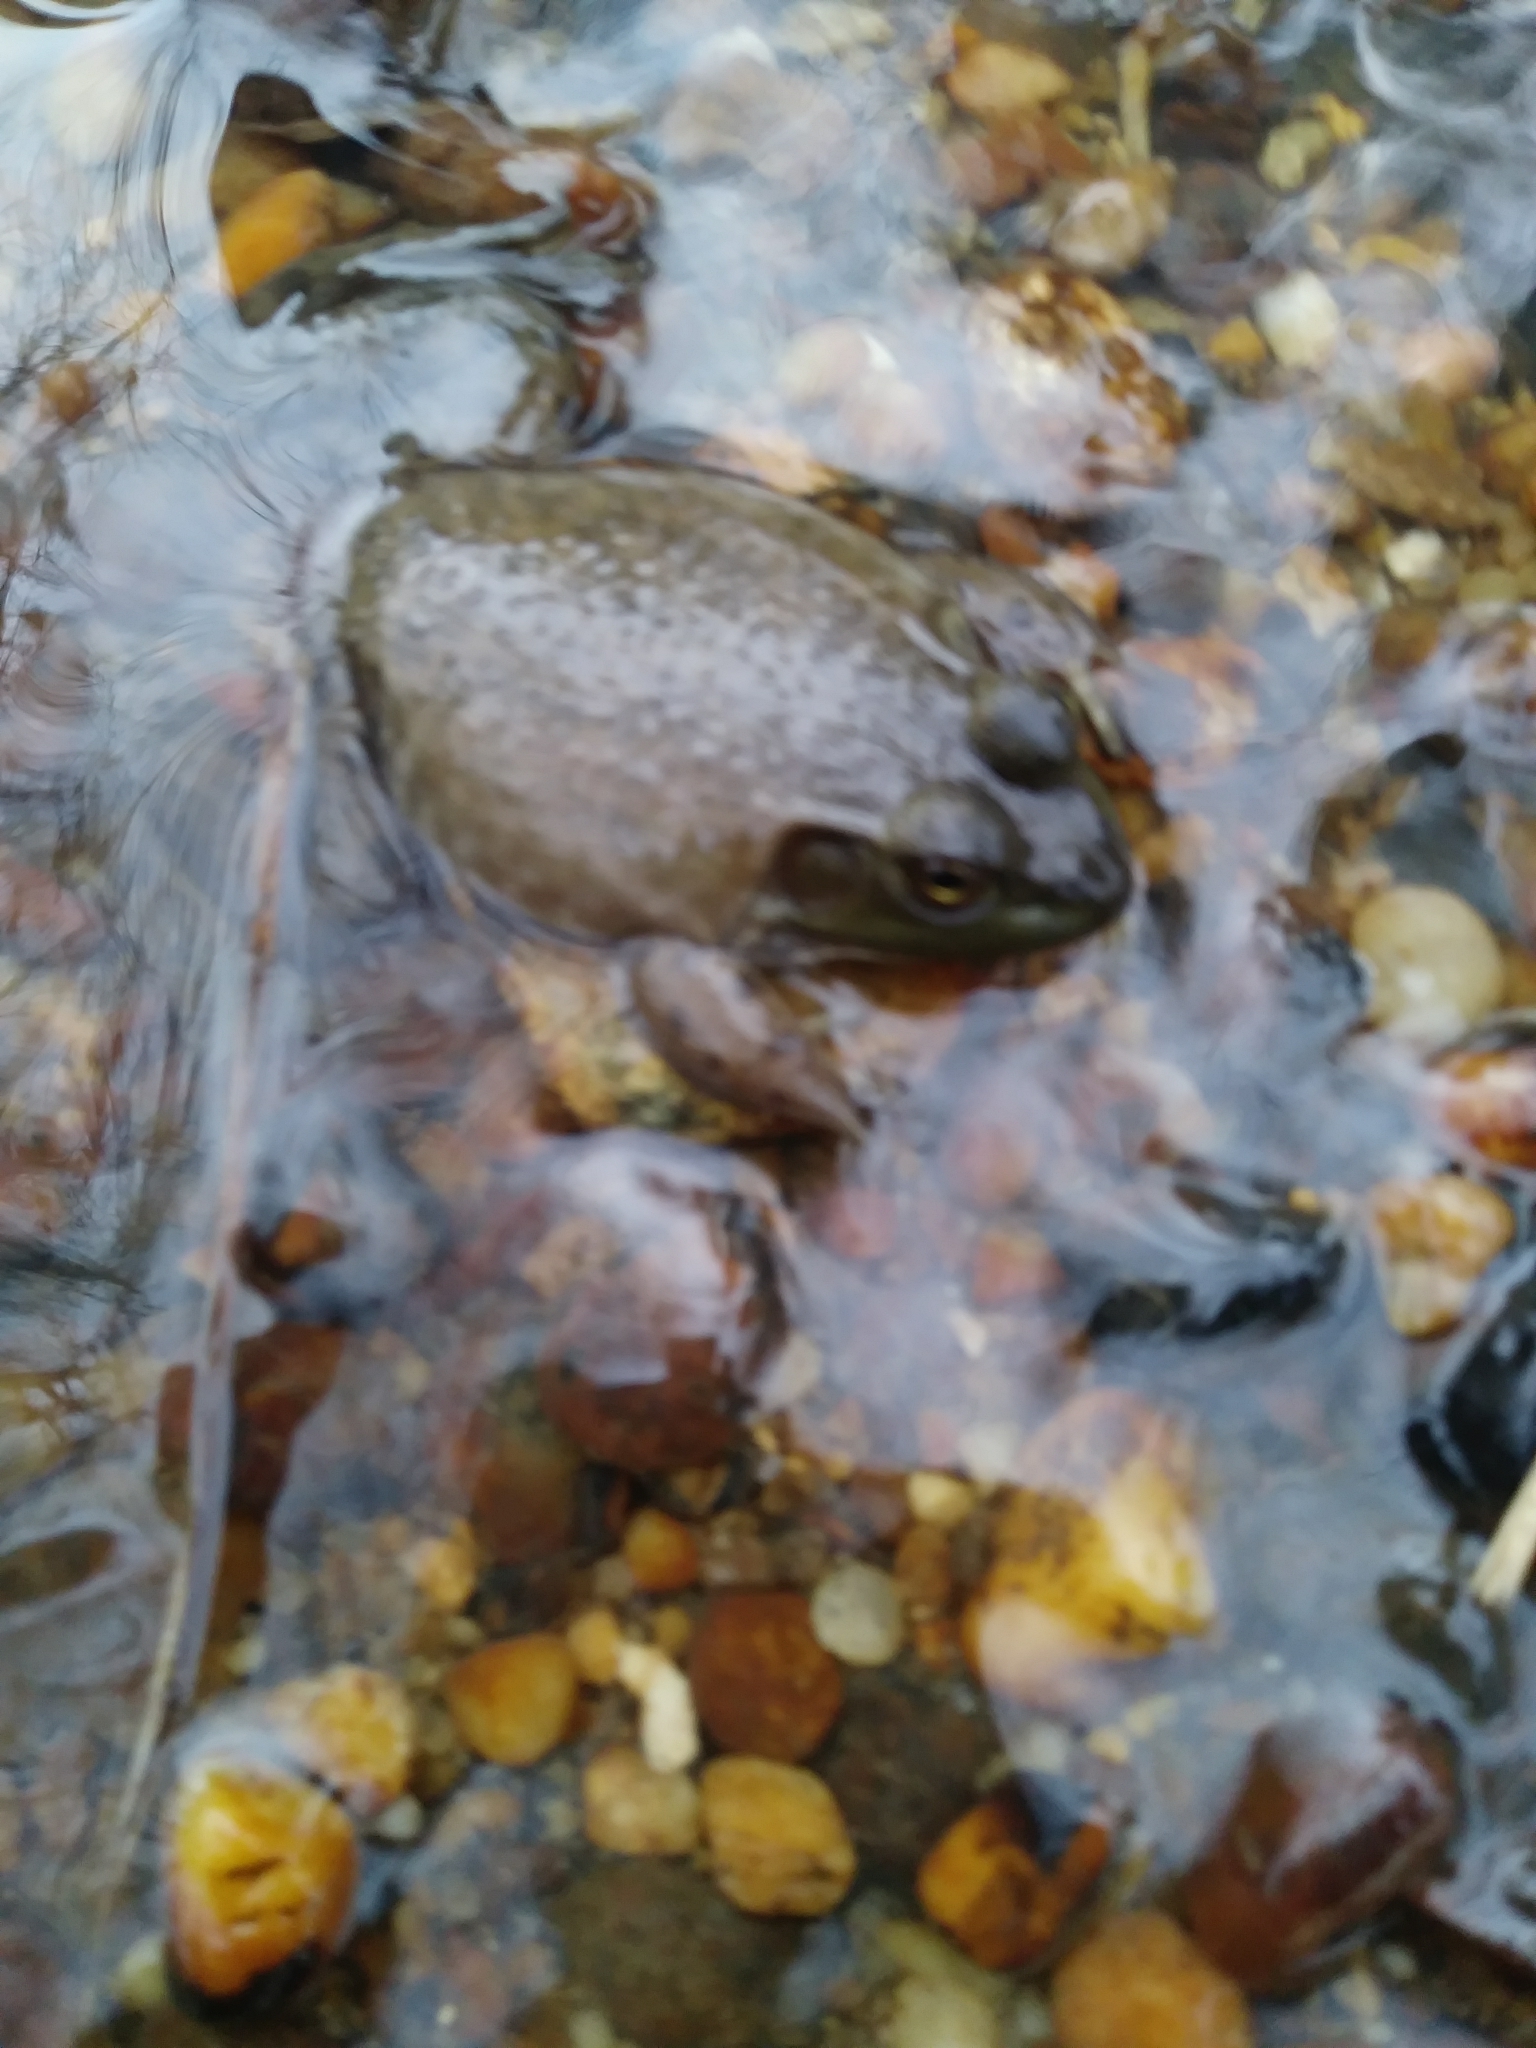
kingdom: Animalia
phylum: Chordata
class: Amphibia
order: Anura
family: Ranidae
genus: Lithobates
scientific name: Lithobates catesbeianus
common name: American bullfrog
